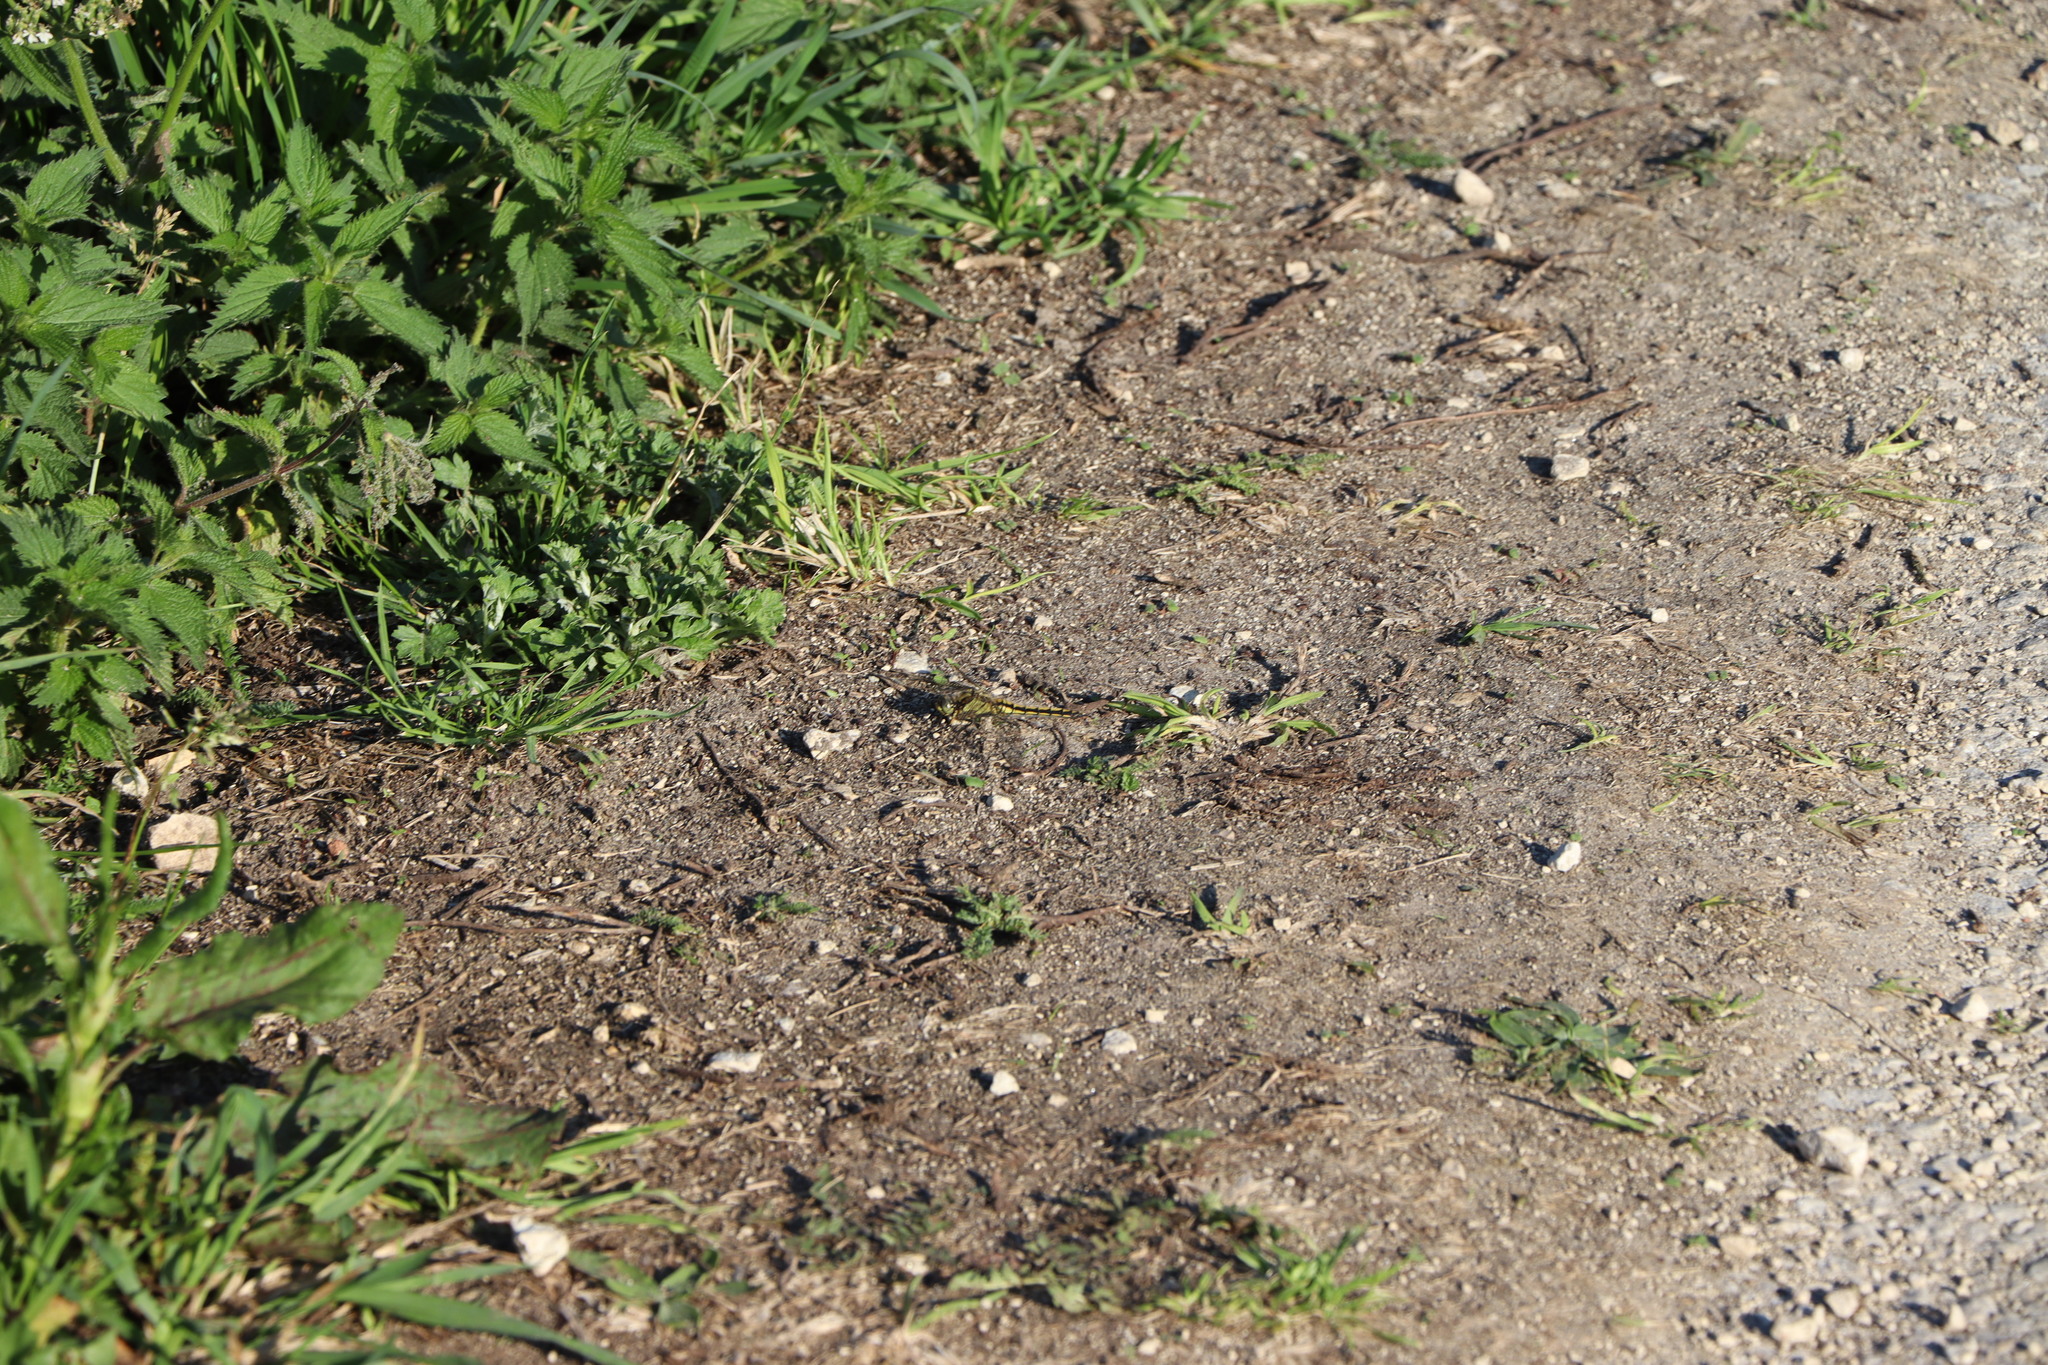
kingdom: Animalia
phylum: Arthropoda
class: Insecta
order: Odonata
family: Libellulidae
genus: Orthetrum
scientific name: Orthetrum cancellatum
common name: Black-tailed skimmer
